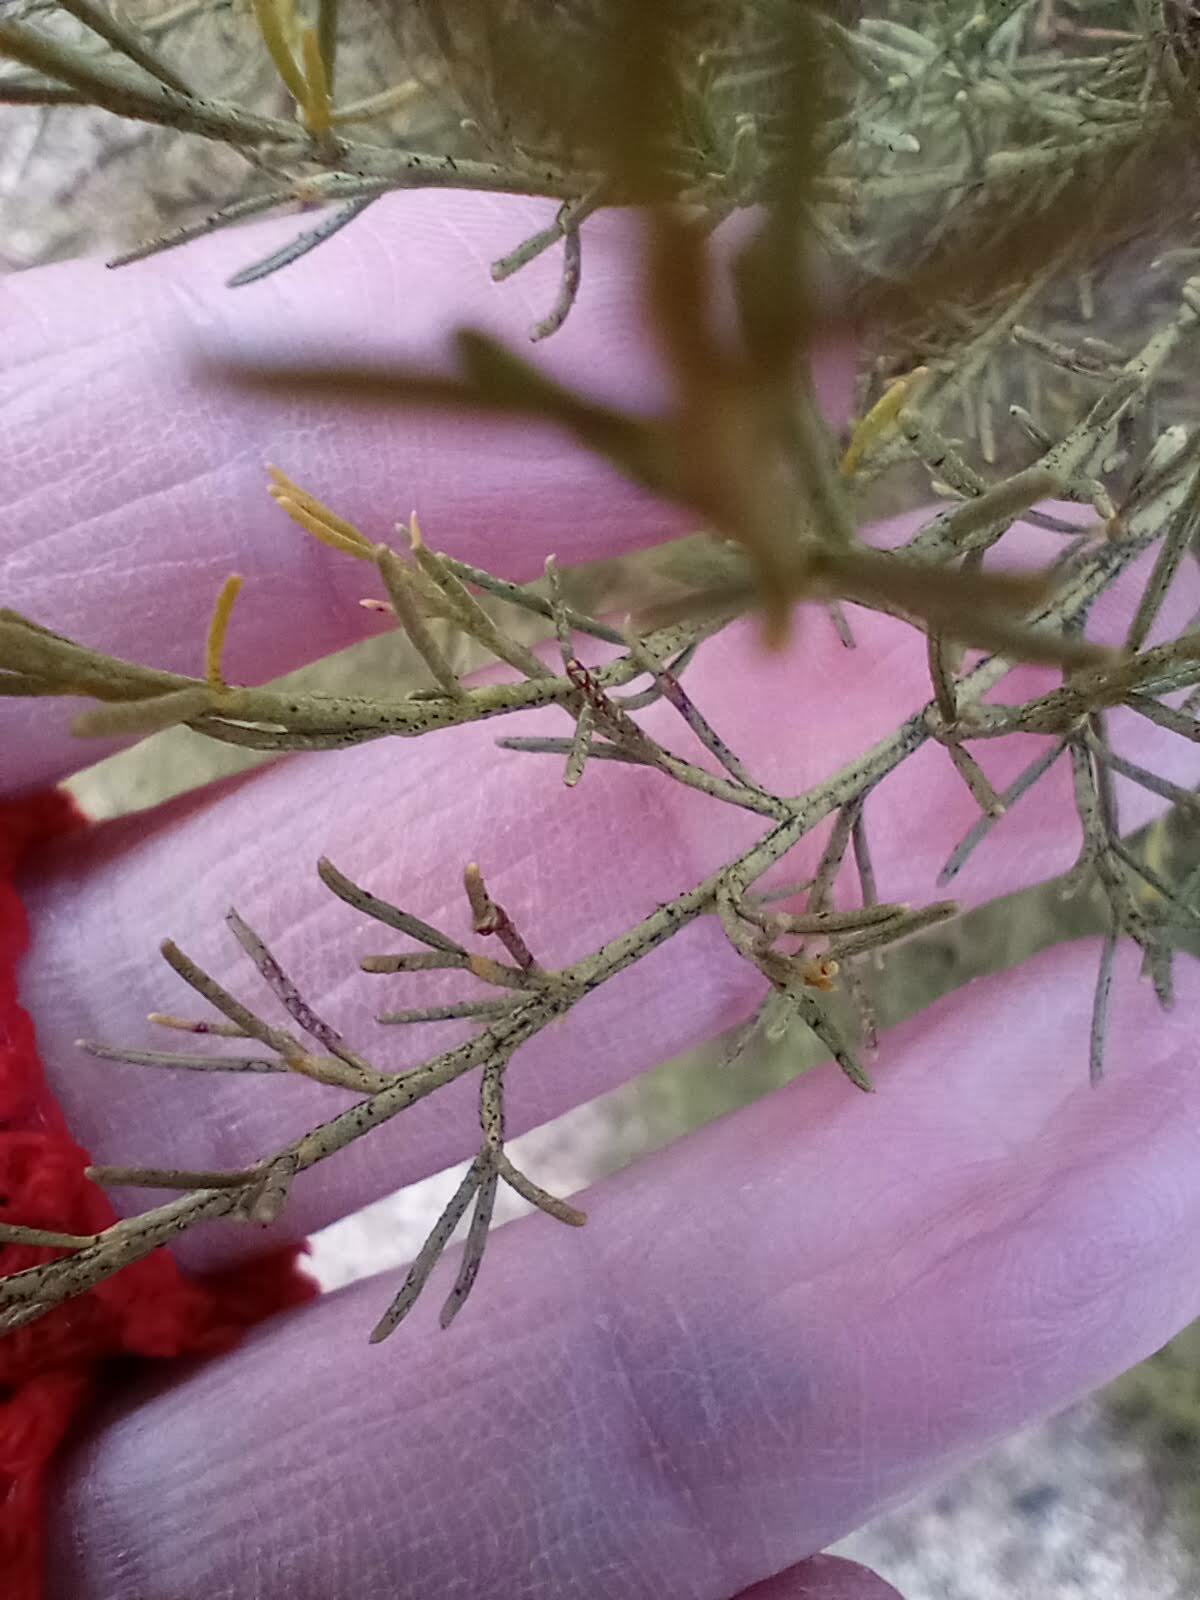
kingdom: Plantae
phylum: Tracheophyta
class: Magnoliopsida
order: Rosales
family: Rosaceae
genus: Adenostoma
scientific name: Adenostoma sparsifolium
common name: Red shank
